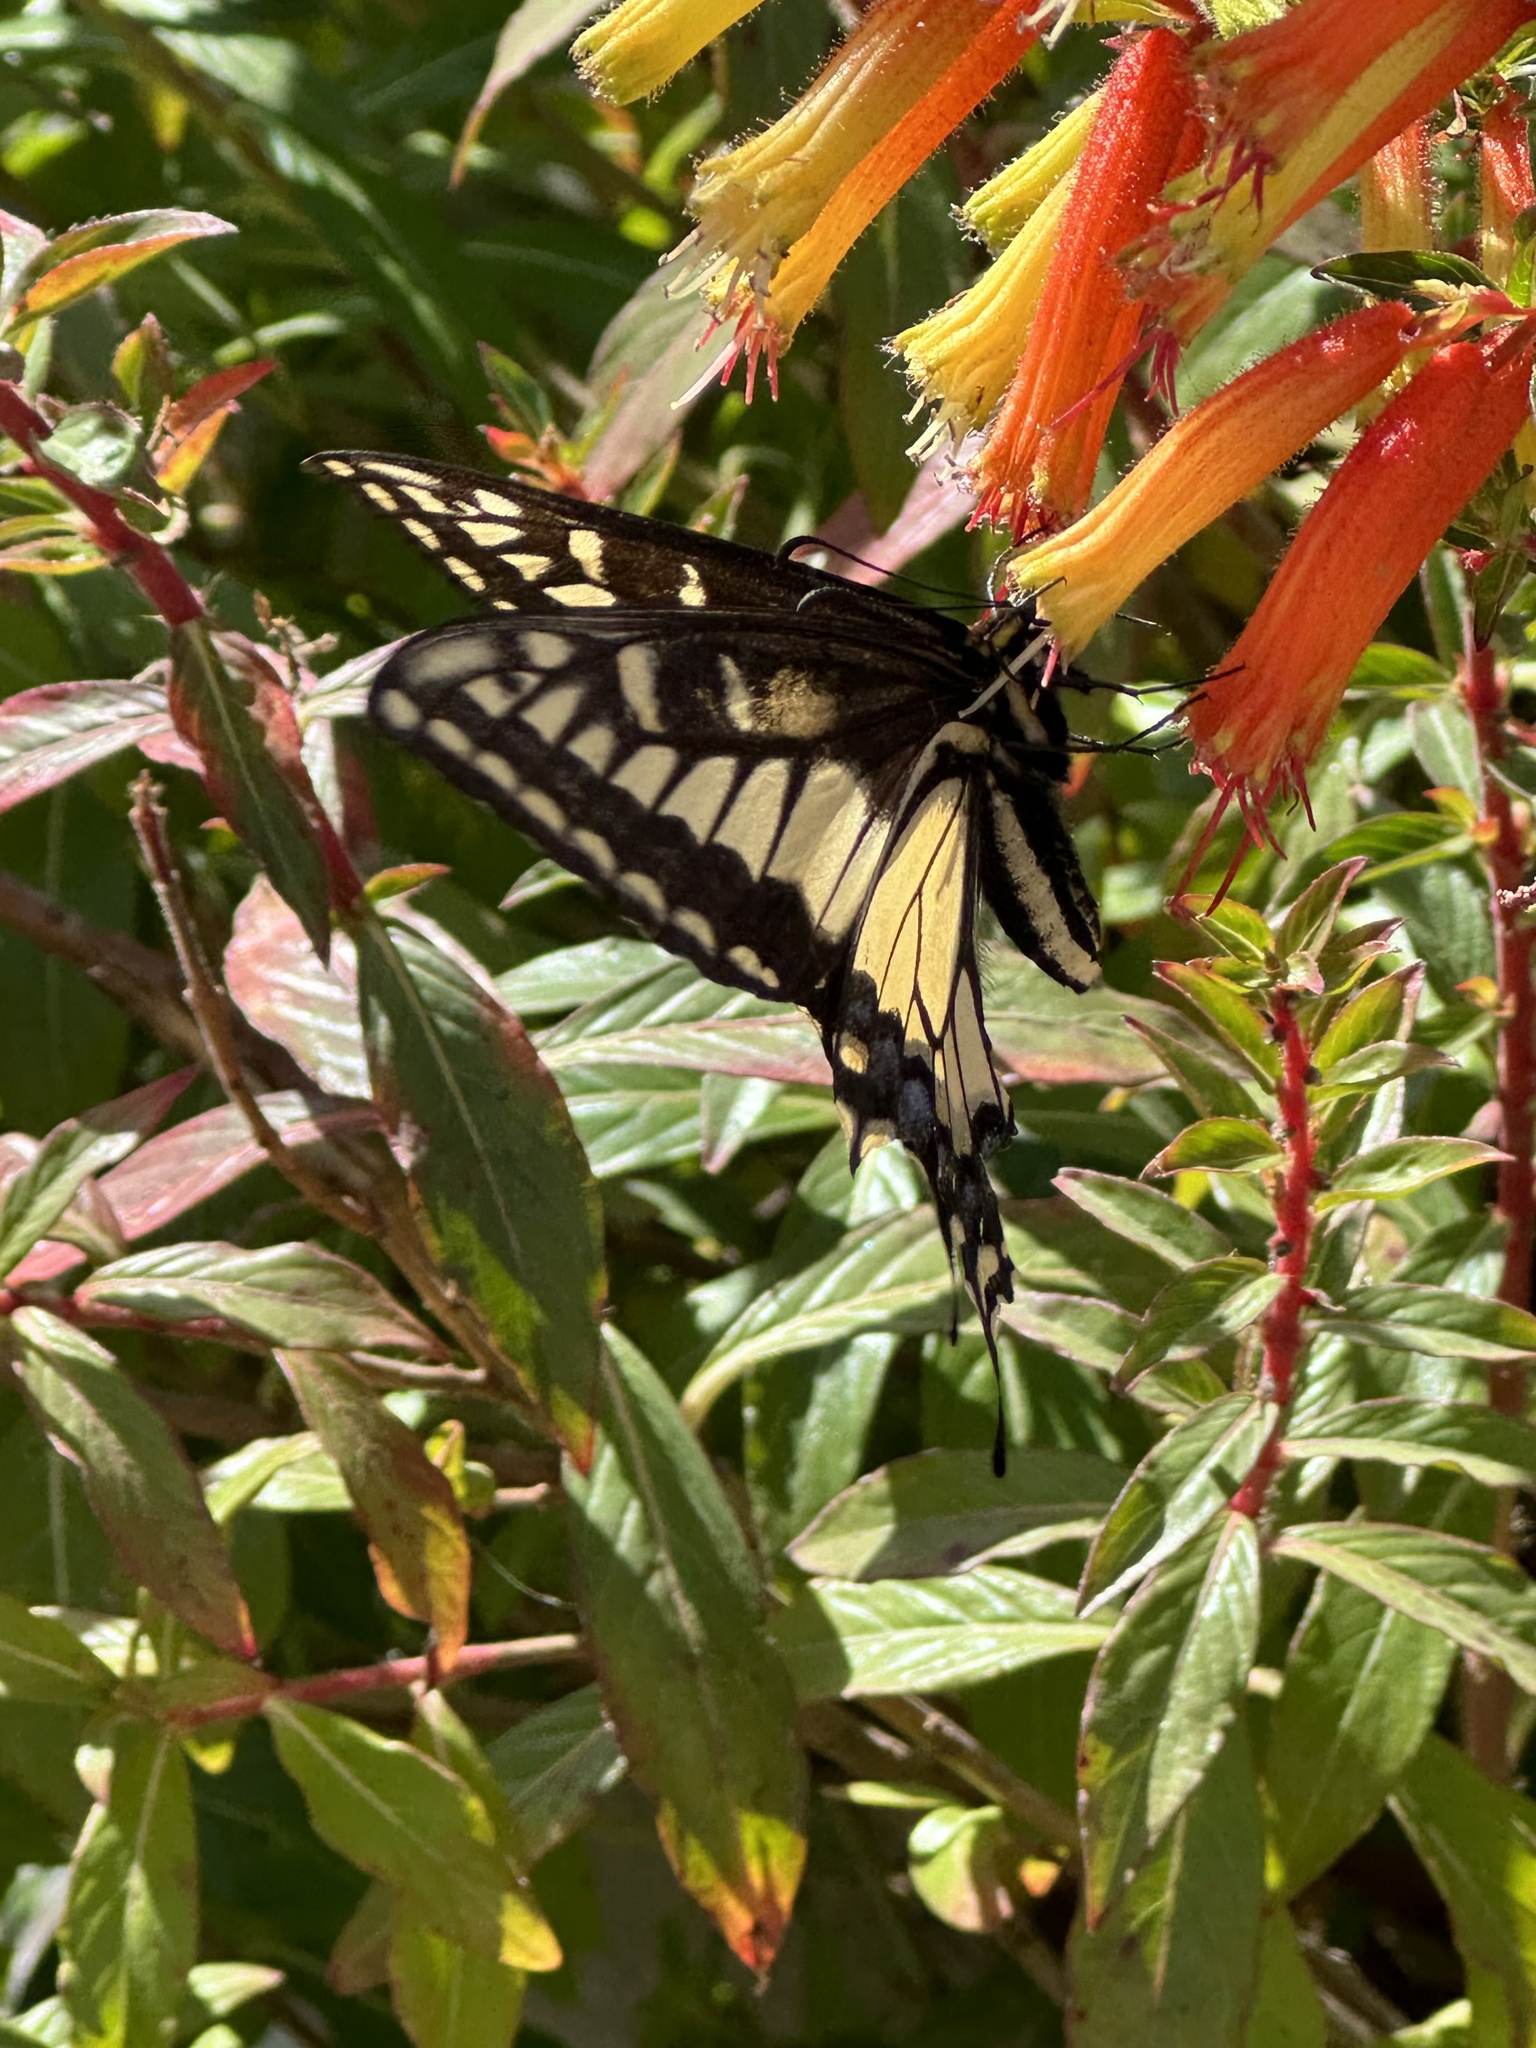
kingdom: Animalia
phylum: Arthropoda
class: Insecta
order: Lepidoptera
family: Papilionidae
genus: Papilio
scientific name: Papilio zelicaon
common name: Anise swallowtail
